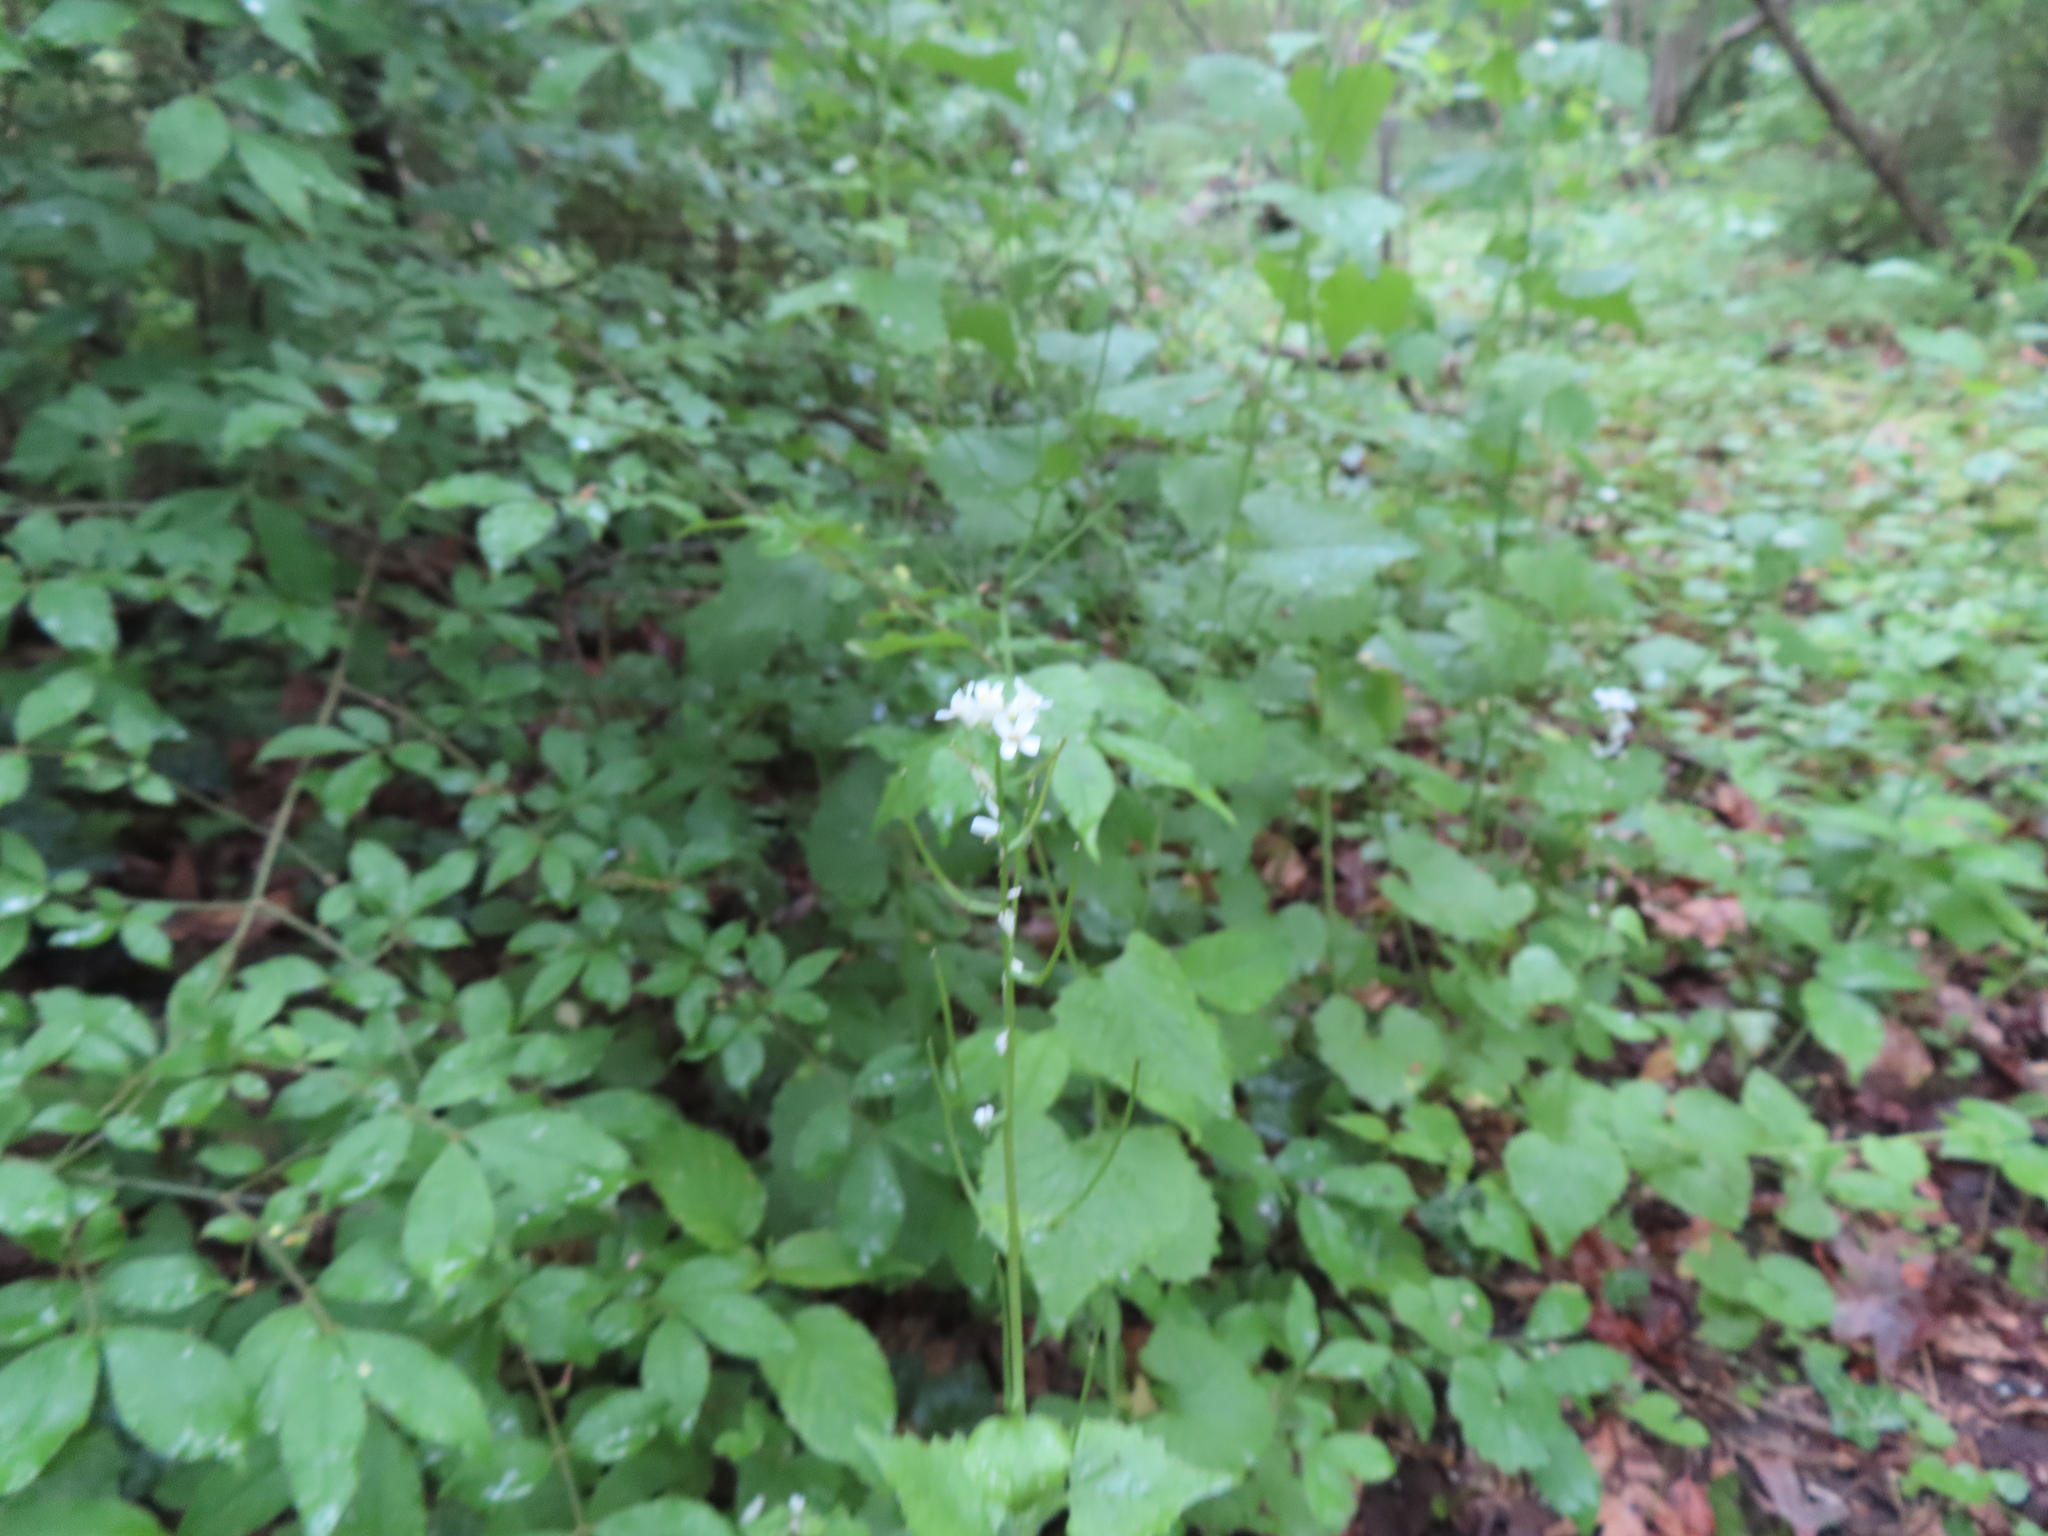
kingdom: Plantae
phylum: Tracheophyta
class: Magnoliopsida
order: Brassicales
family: Brassicaceae
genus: Alliaria
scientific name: Alliaria petiolata
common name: Garlic mustard
